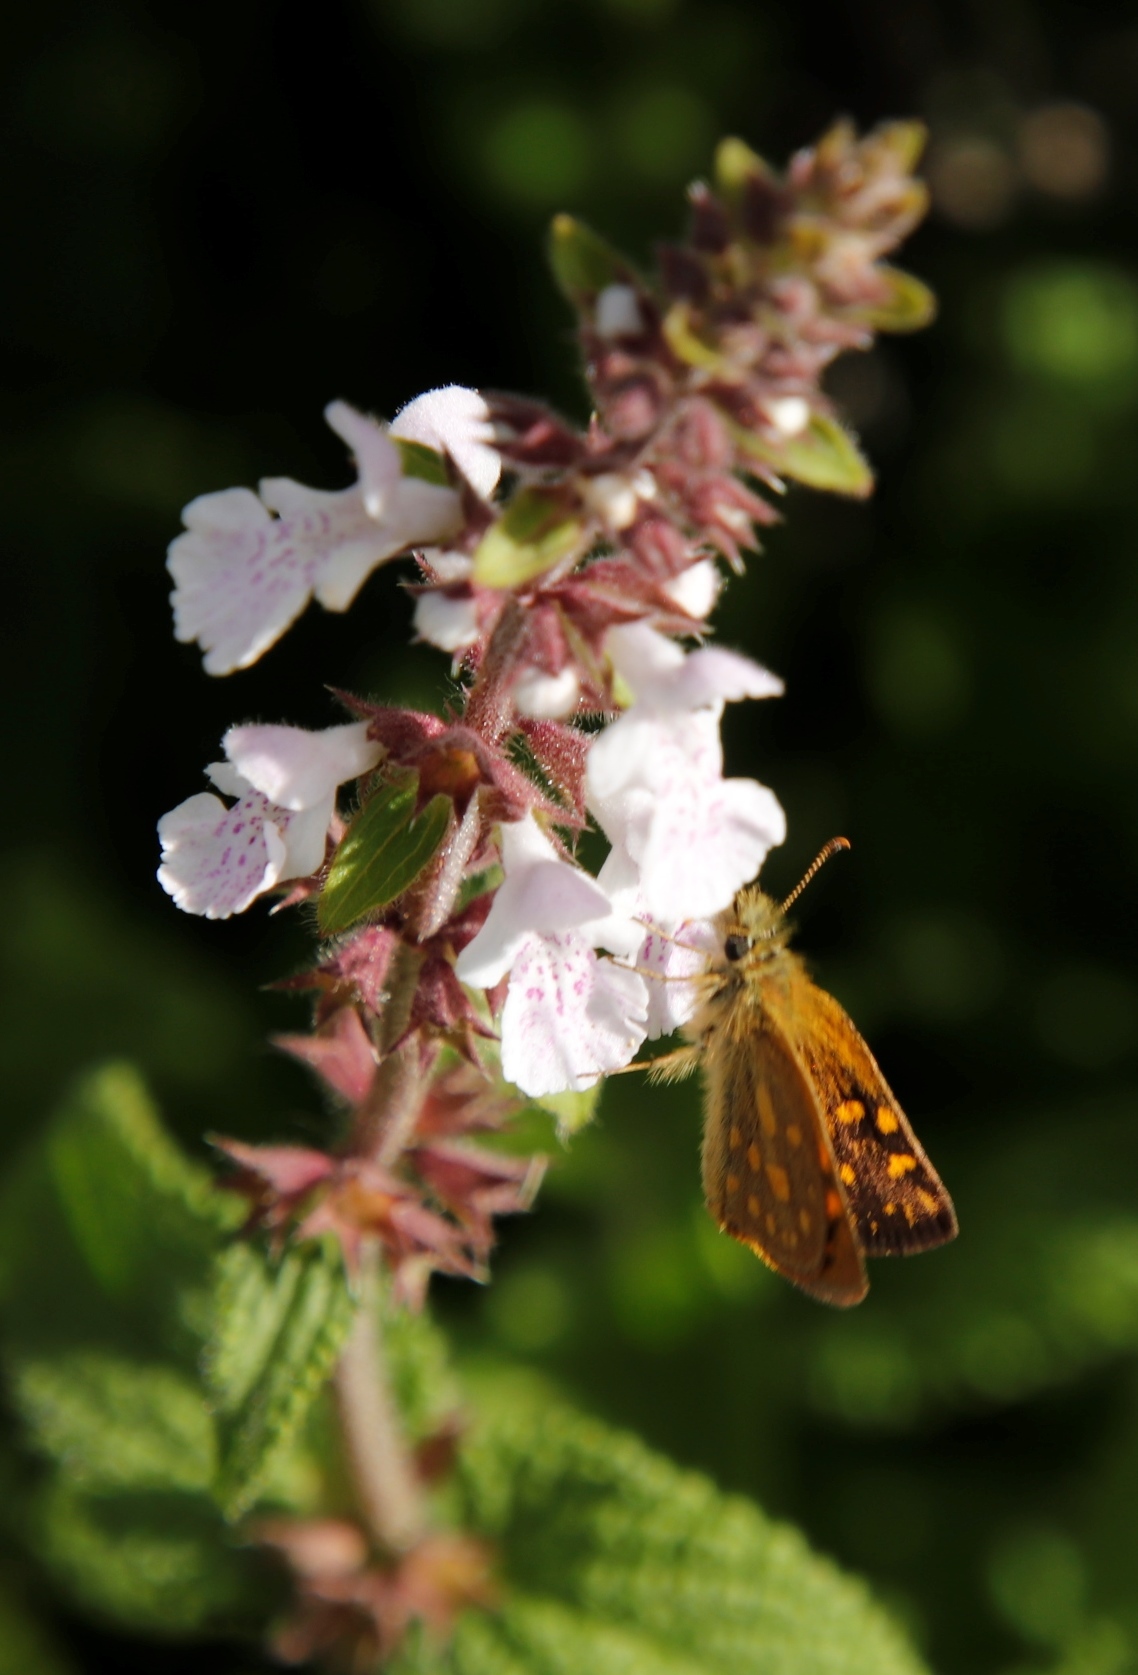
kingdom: Animalia
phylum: Arthropoda
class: Insecta
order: Lepidoptera
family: Hesperiidae
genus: Metisella
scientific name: Metisella malgacha
